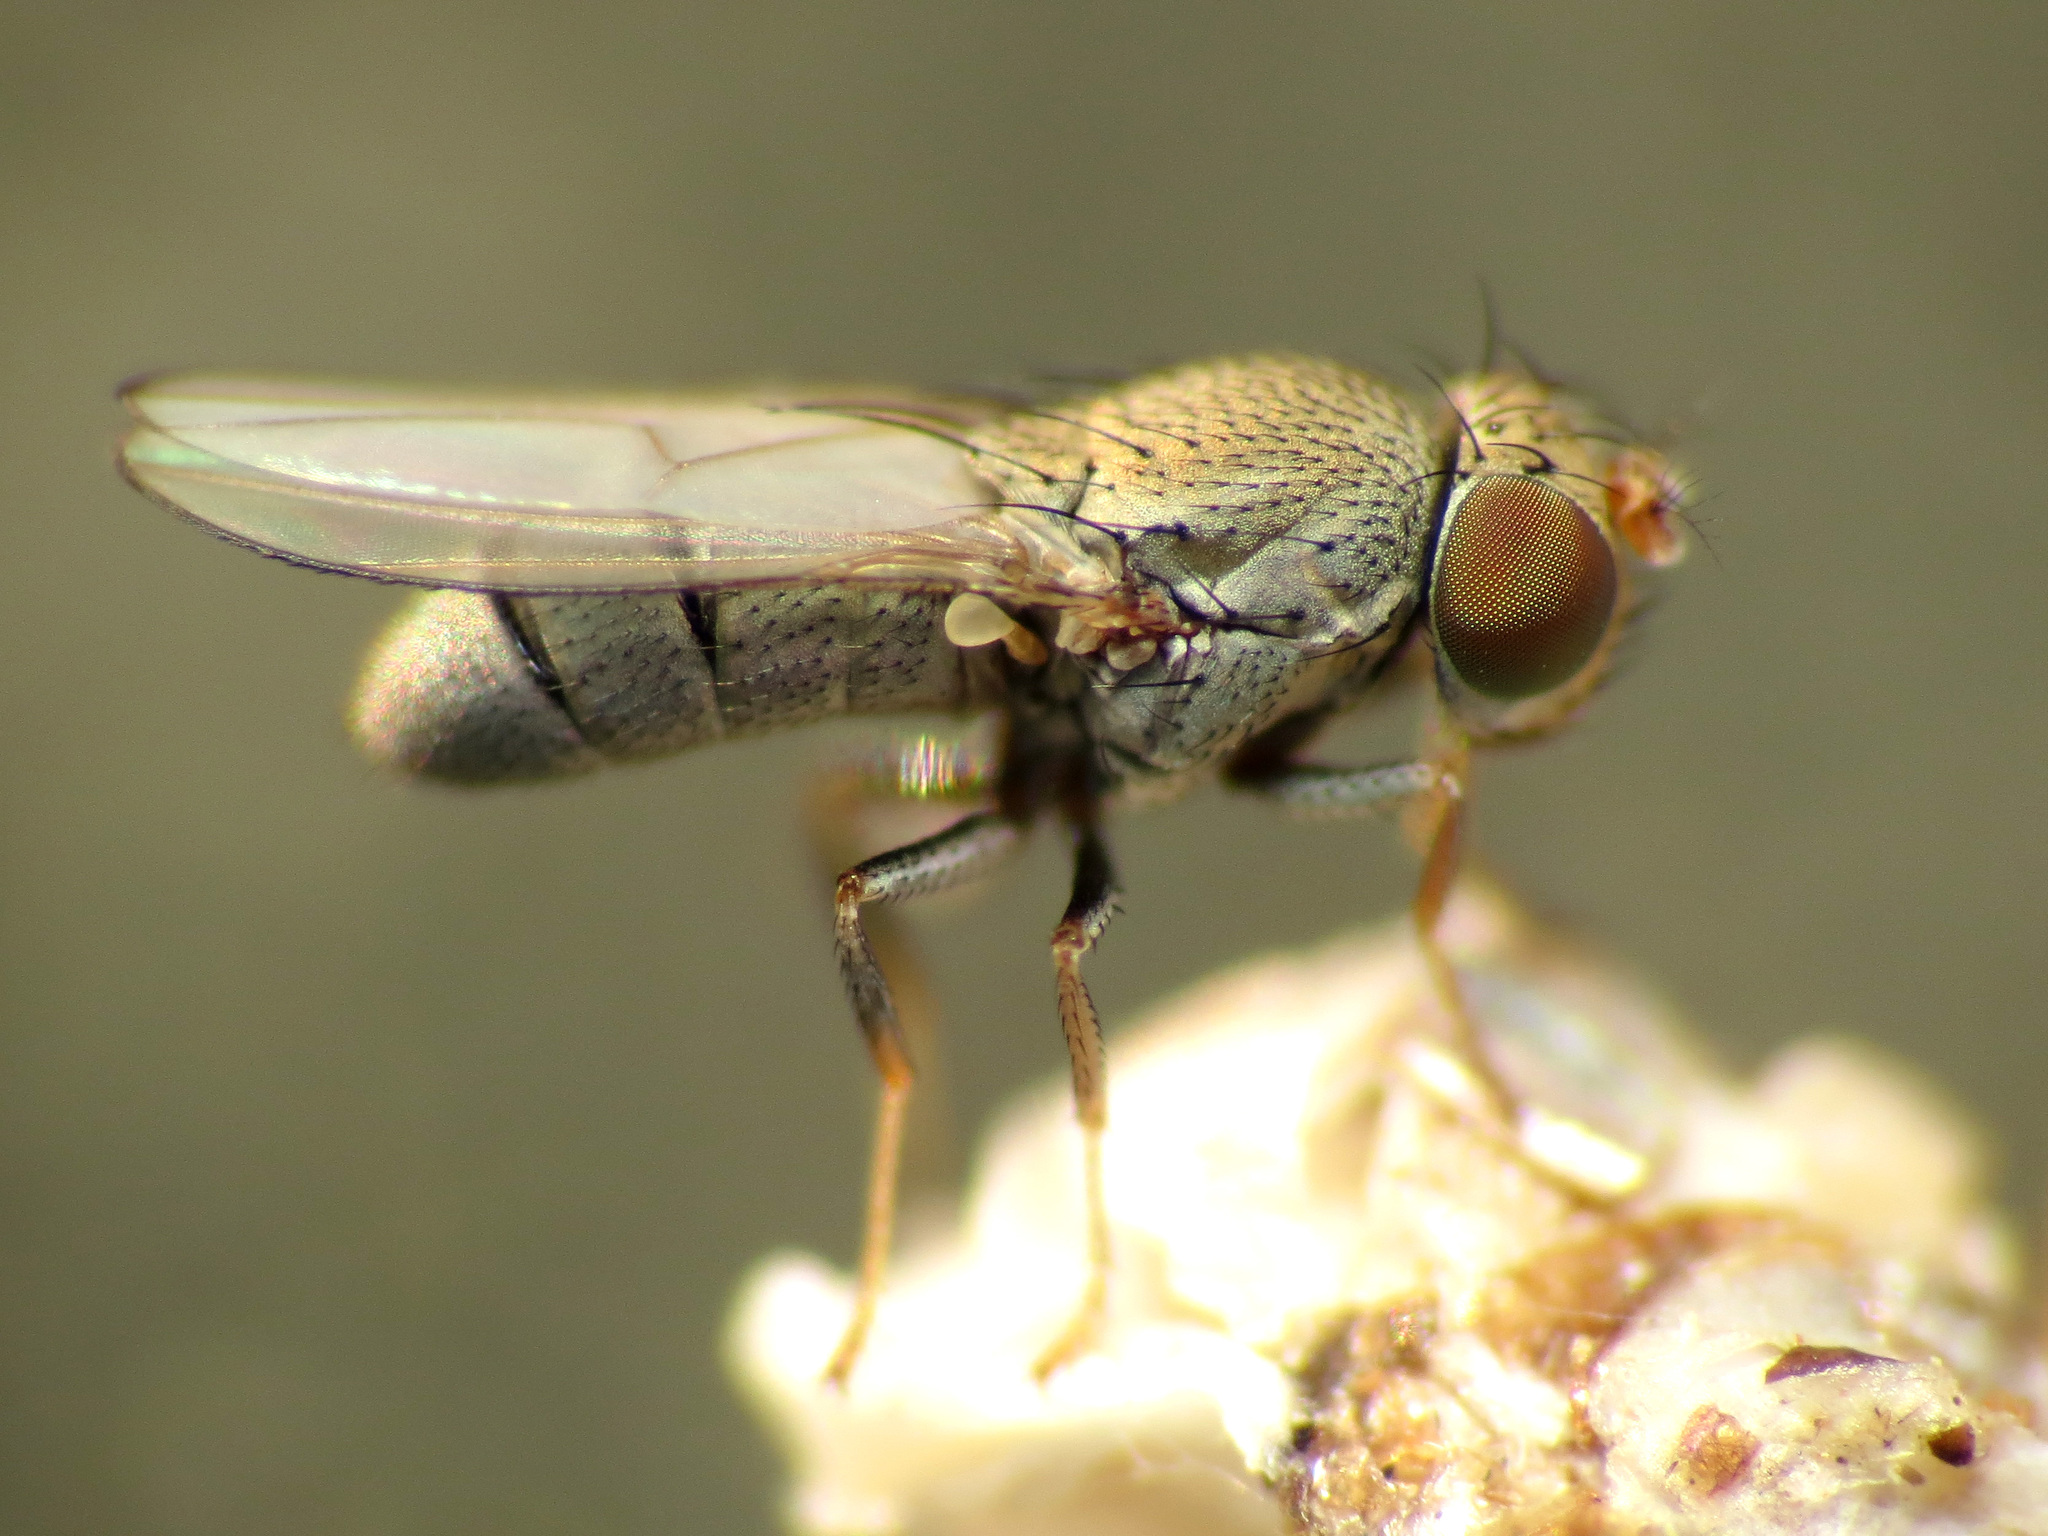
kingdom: Animalia
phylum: Arthropoda
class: Insecta
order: Diptera
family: Ephydridae
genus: Diclasiopa
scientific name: Diclasiopa lacteipennis
